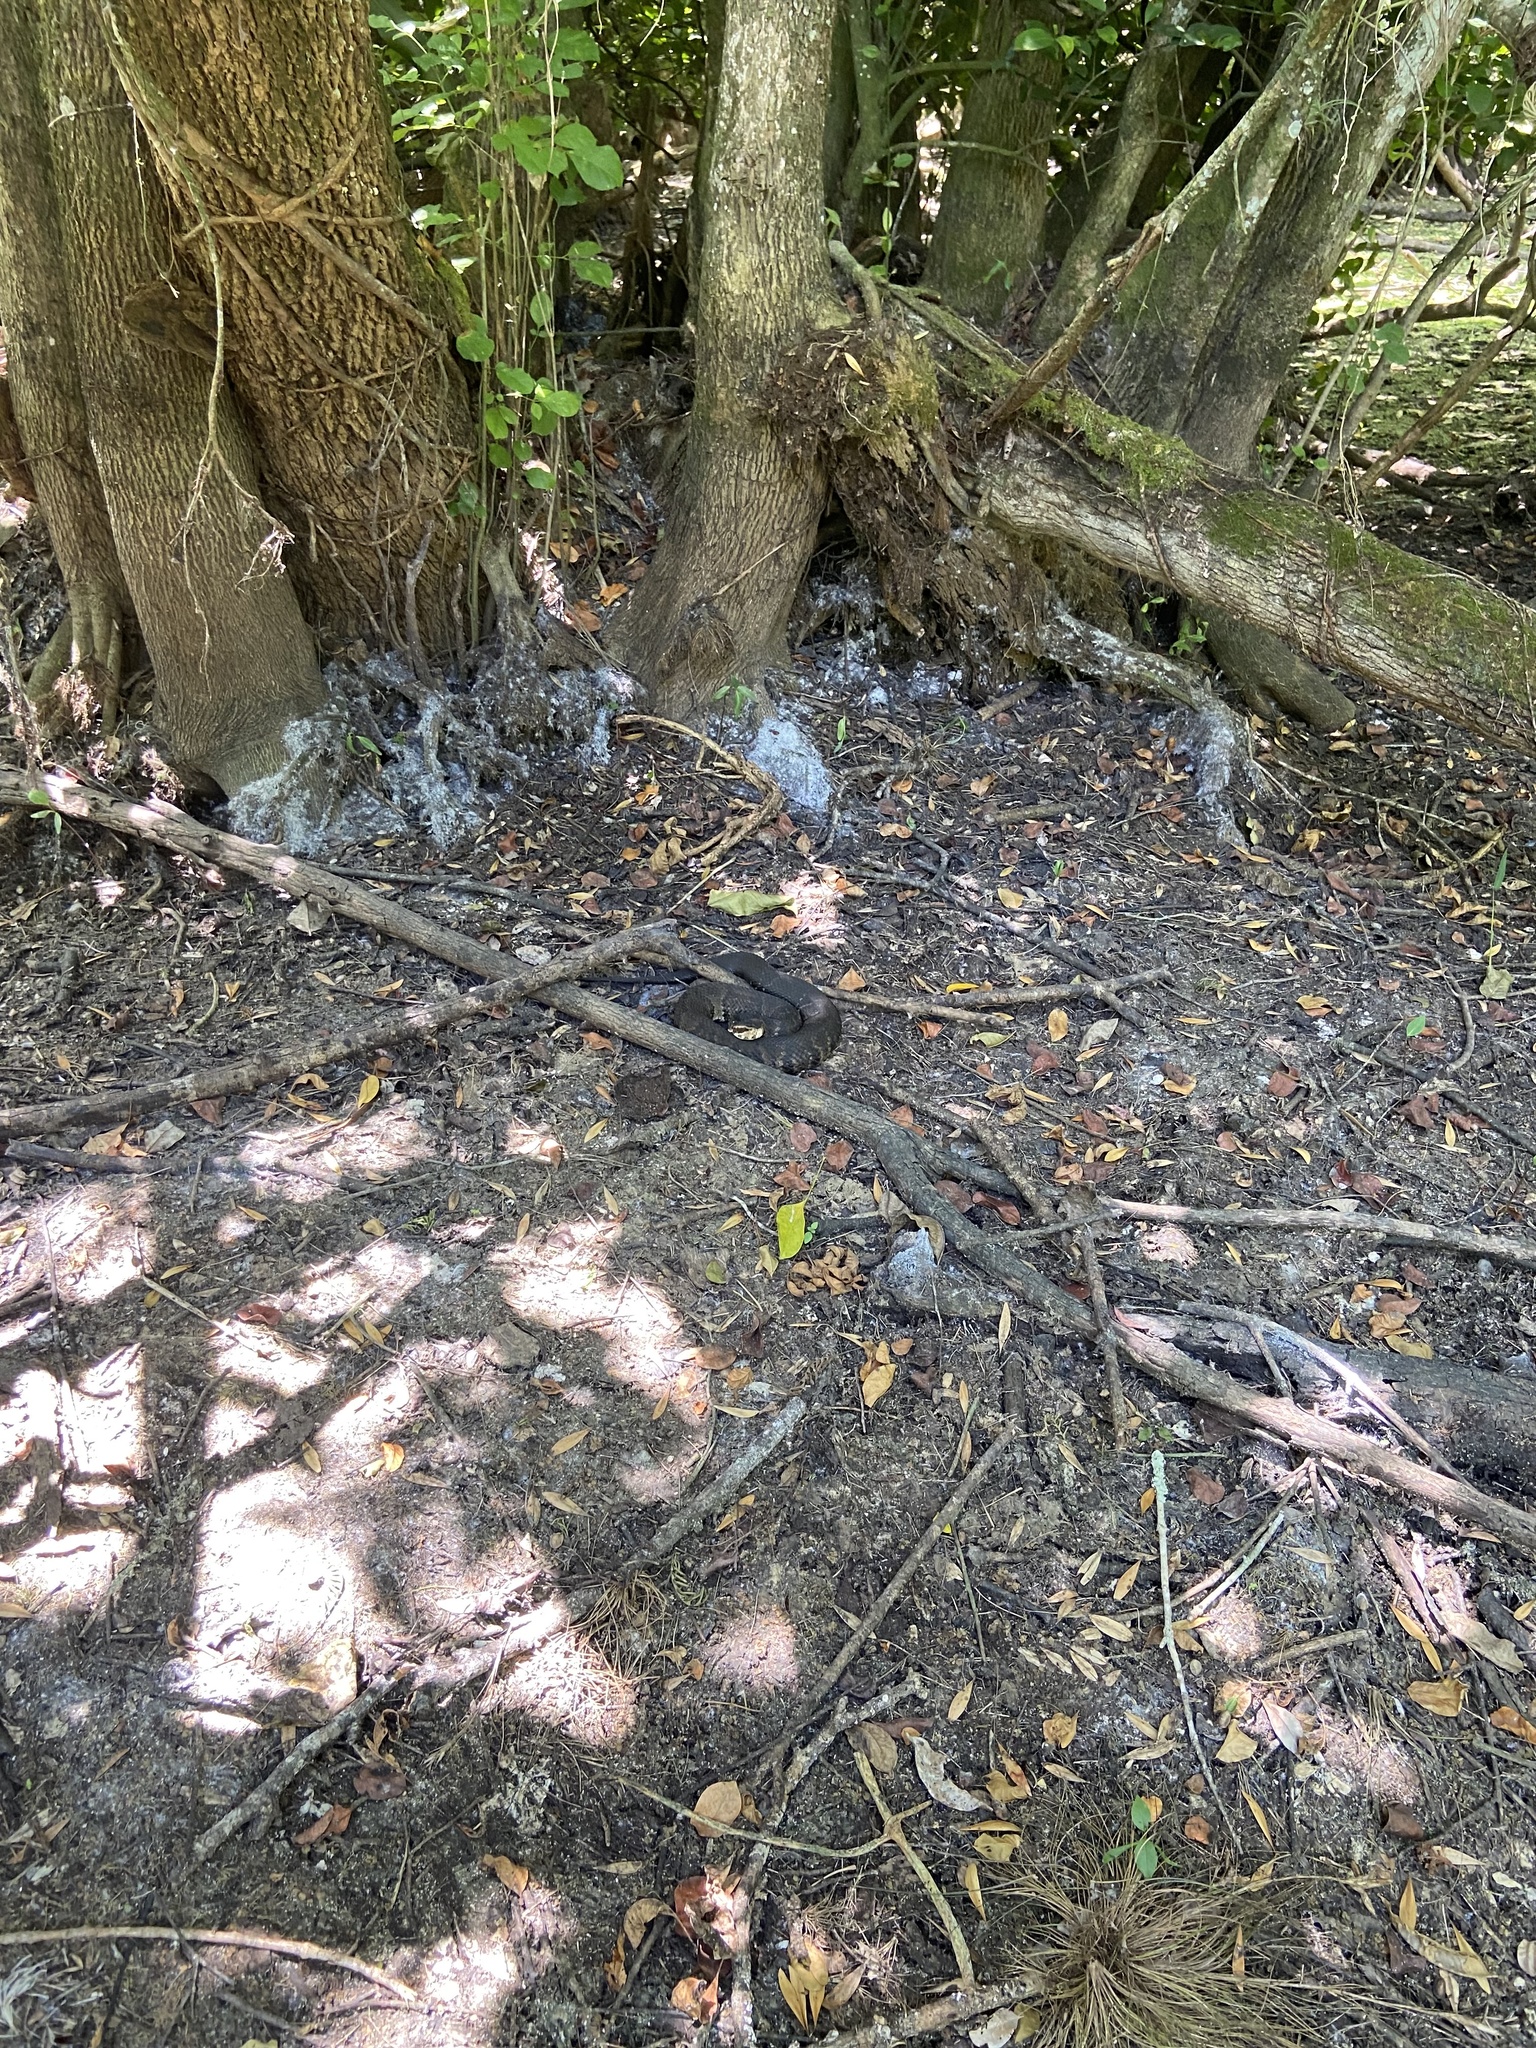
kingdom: Animalia
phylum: Chordata
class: Squamata
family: Viperidae
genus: Agkistrodon
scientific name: Agkistrodon conanti
